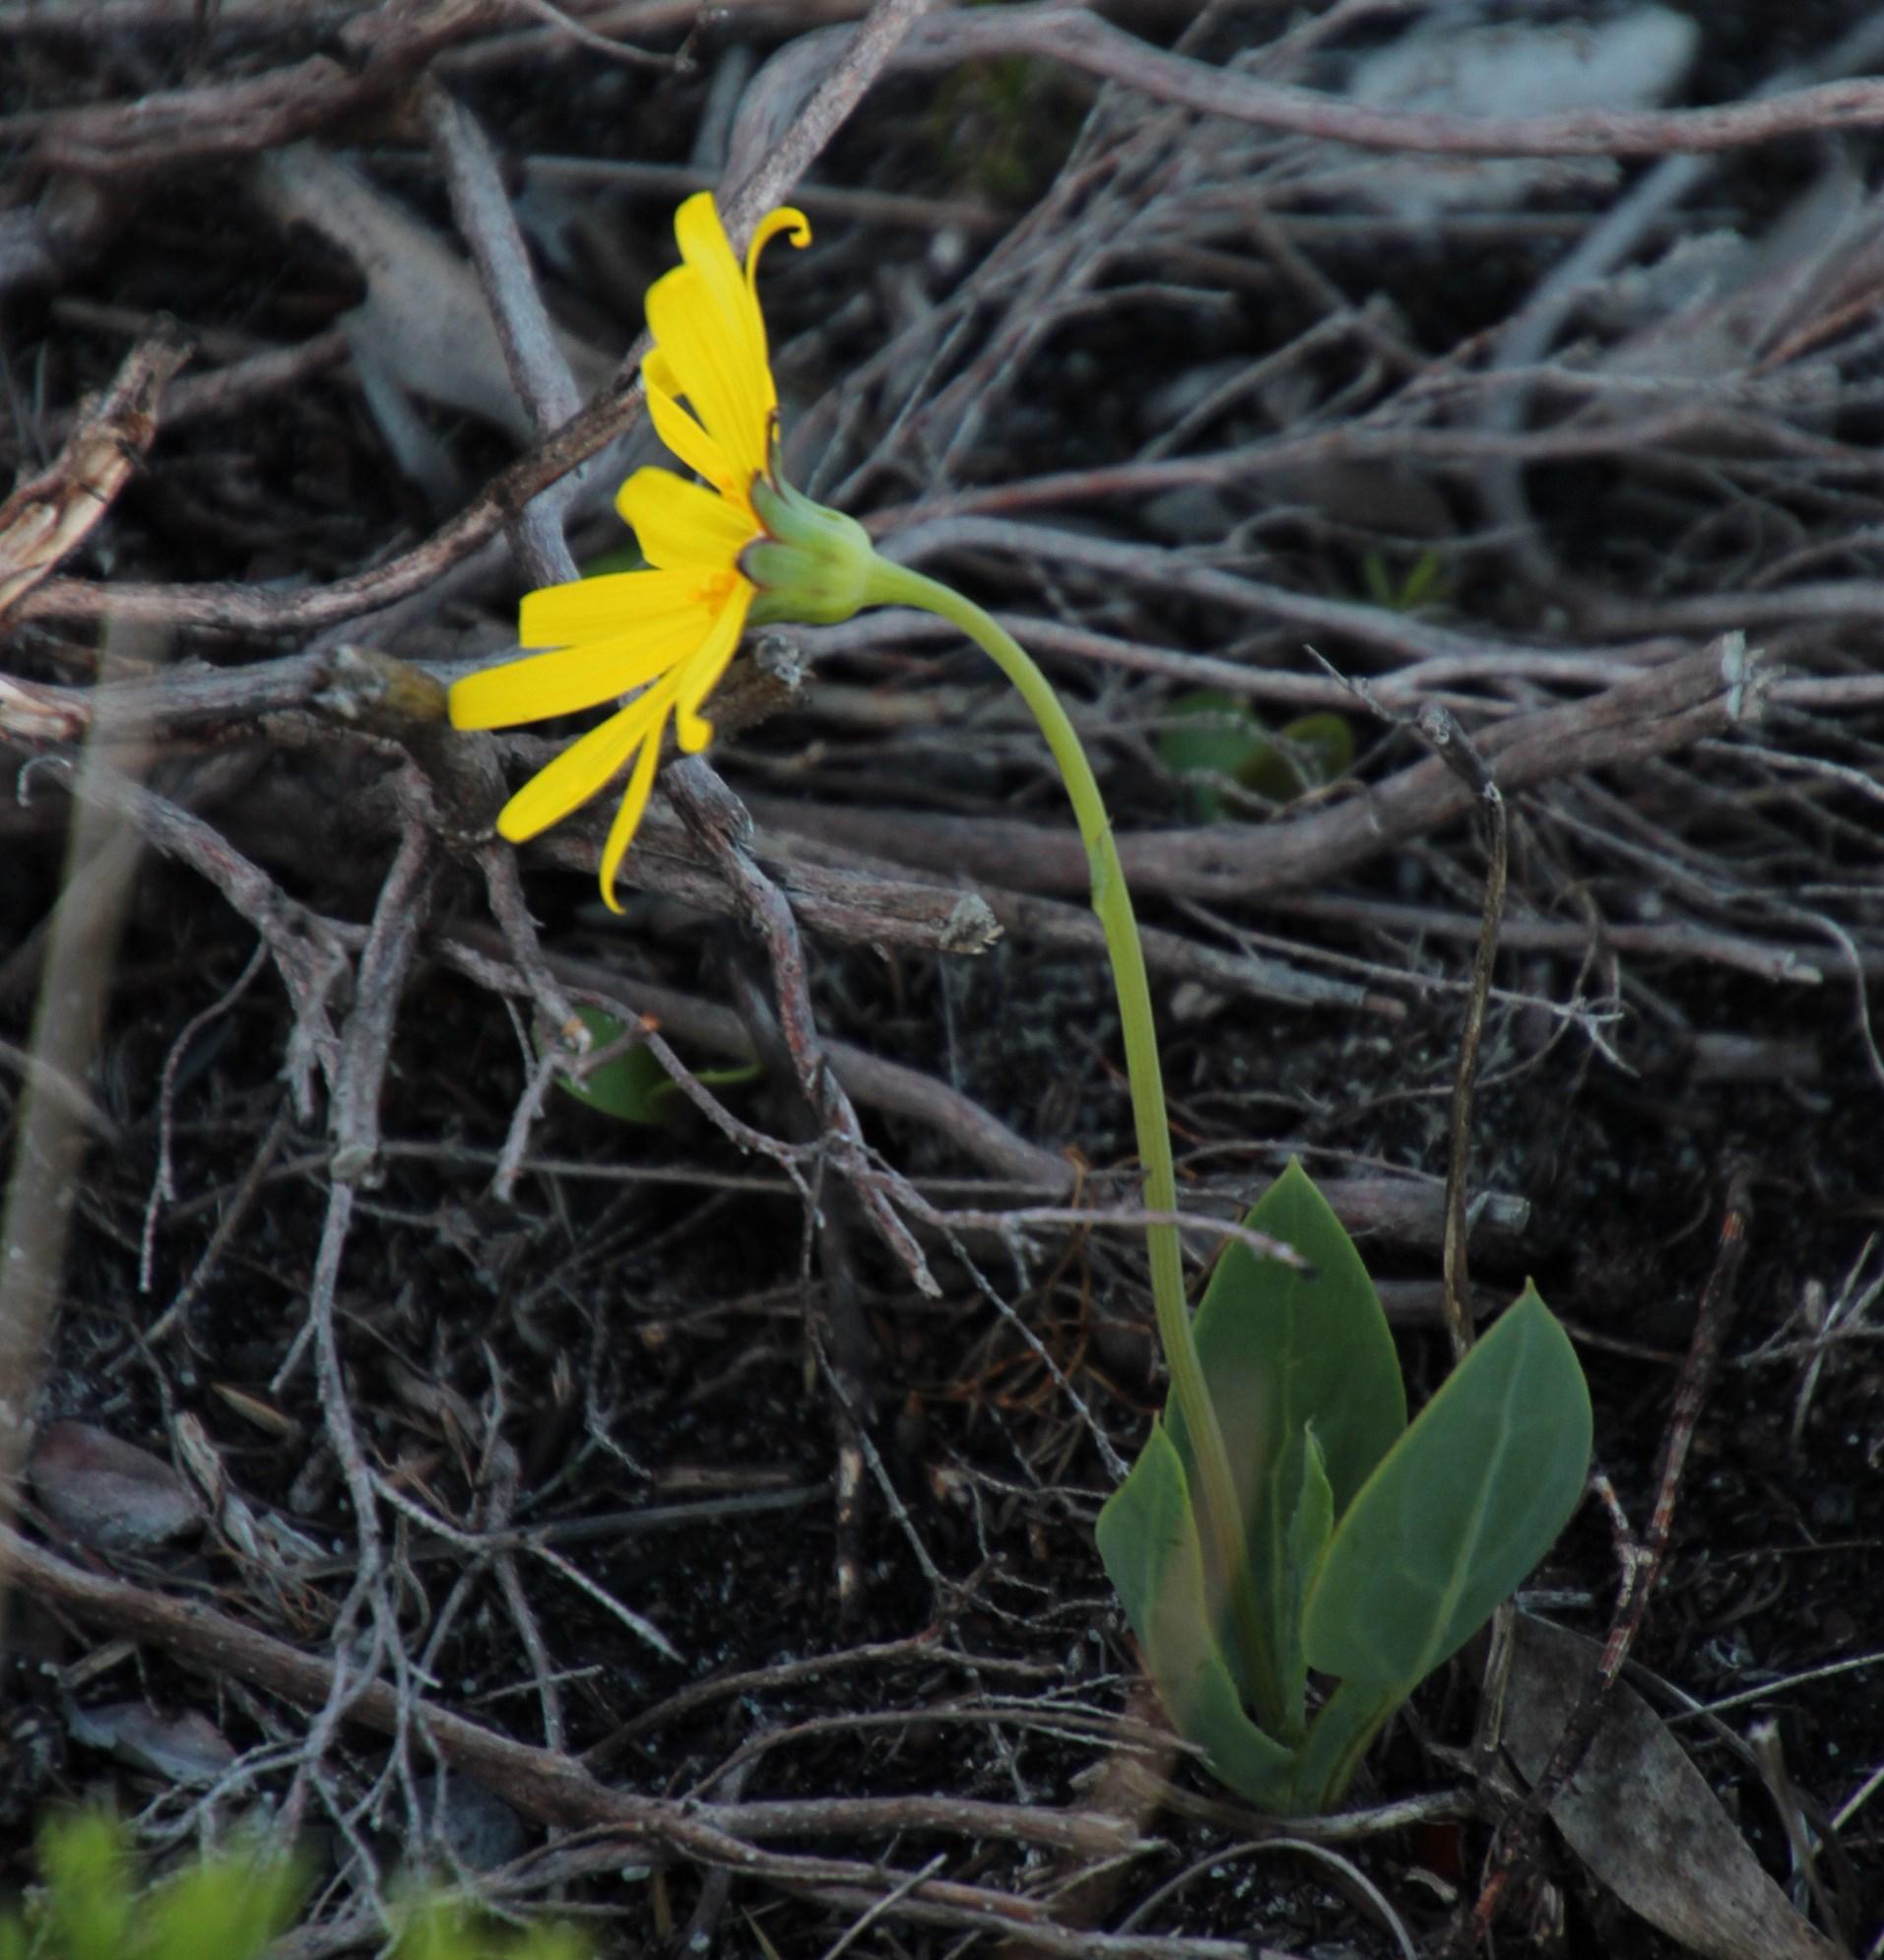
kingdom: Plantae
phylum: Tracheophyta
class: Magnoliopsida
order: Asterales
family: Asteraceae
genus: Othonna
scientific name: Othonna bulbosa
